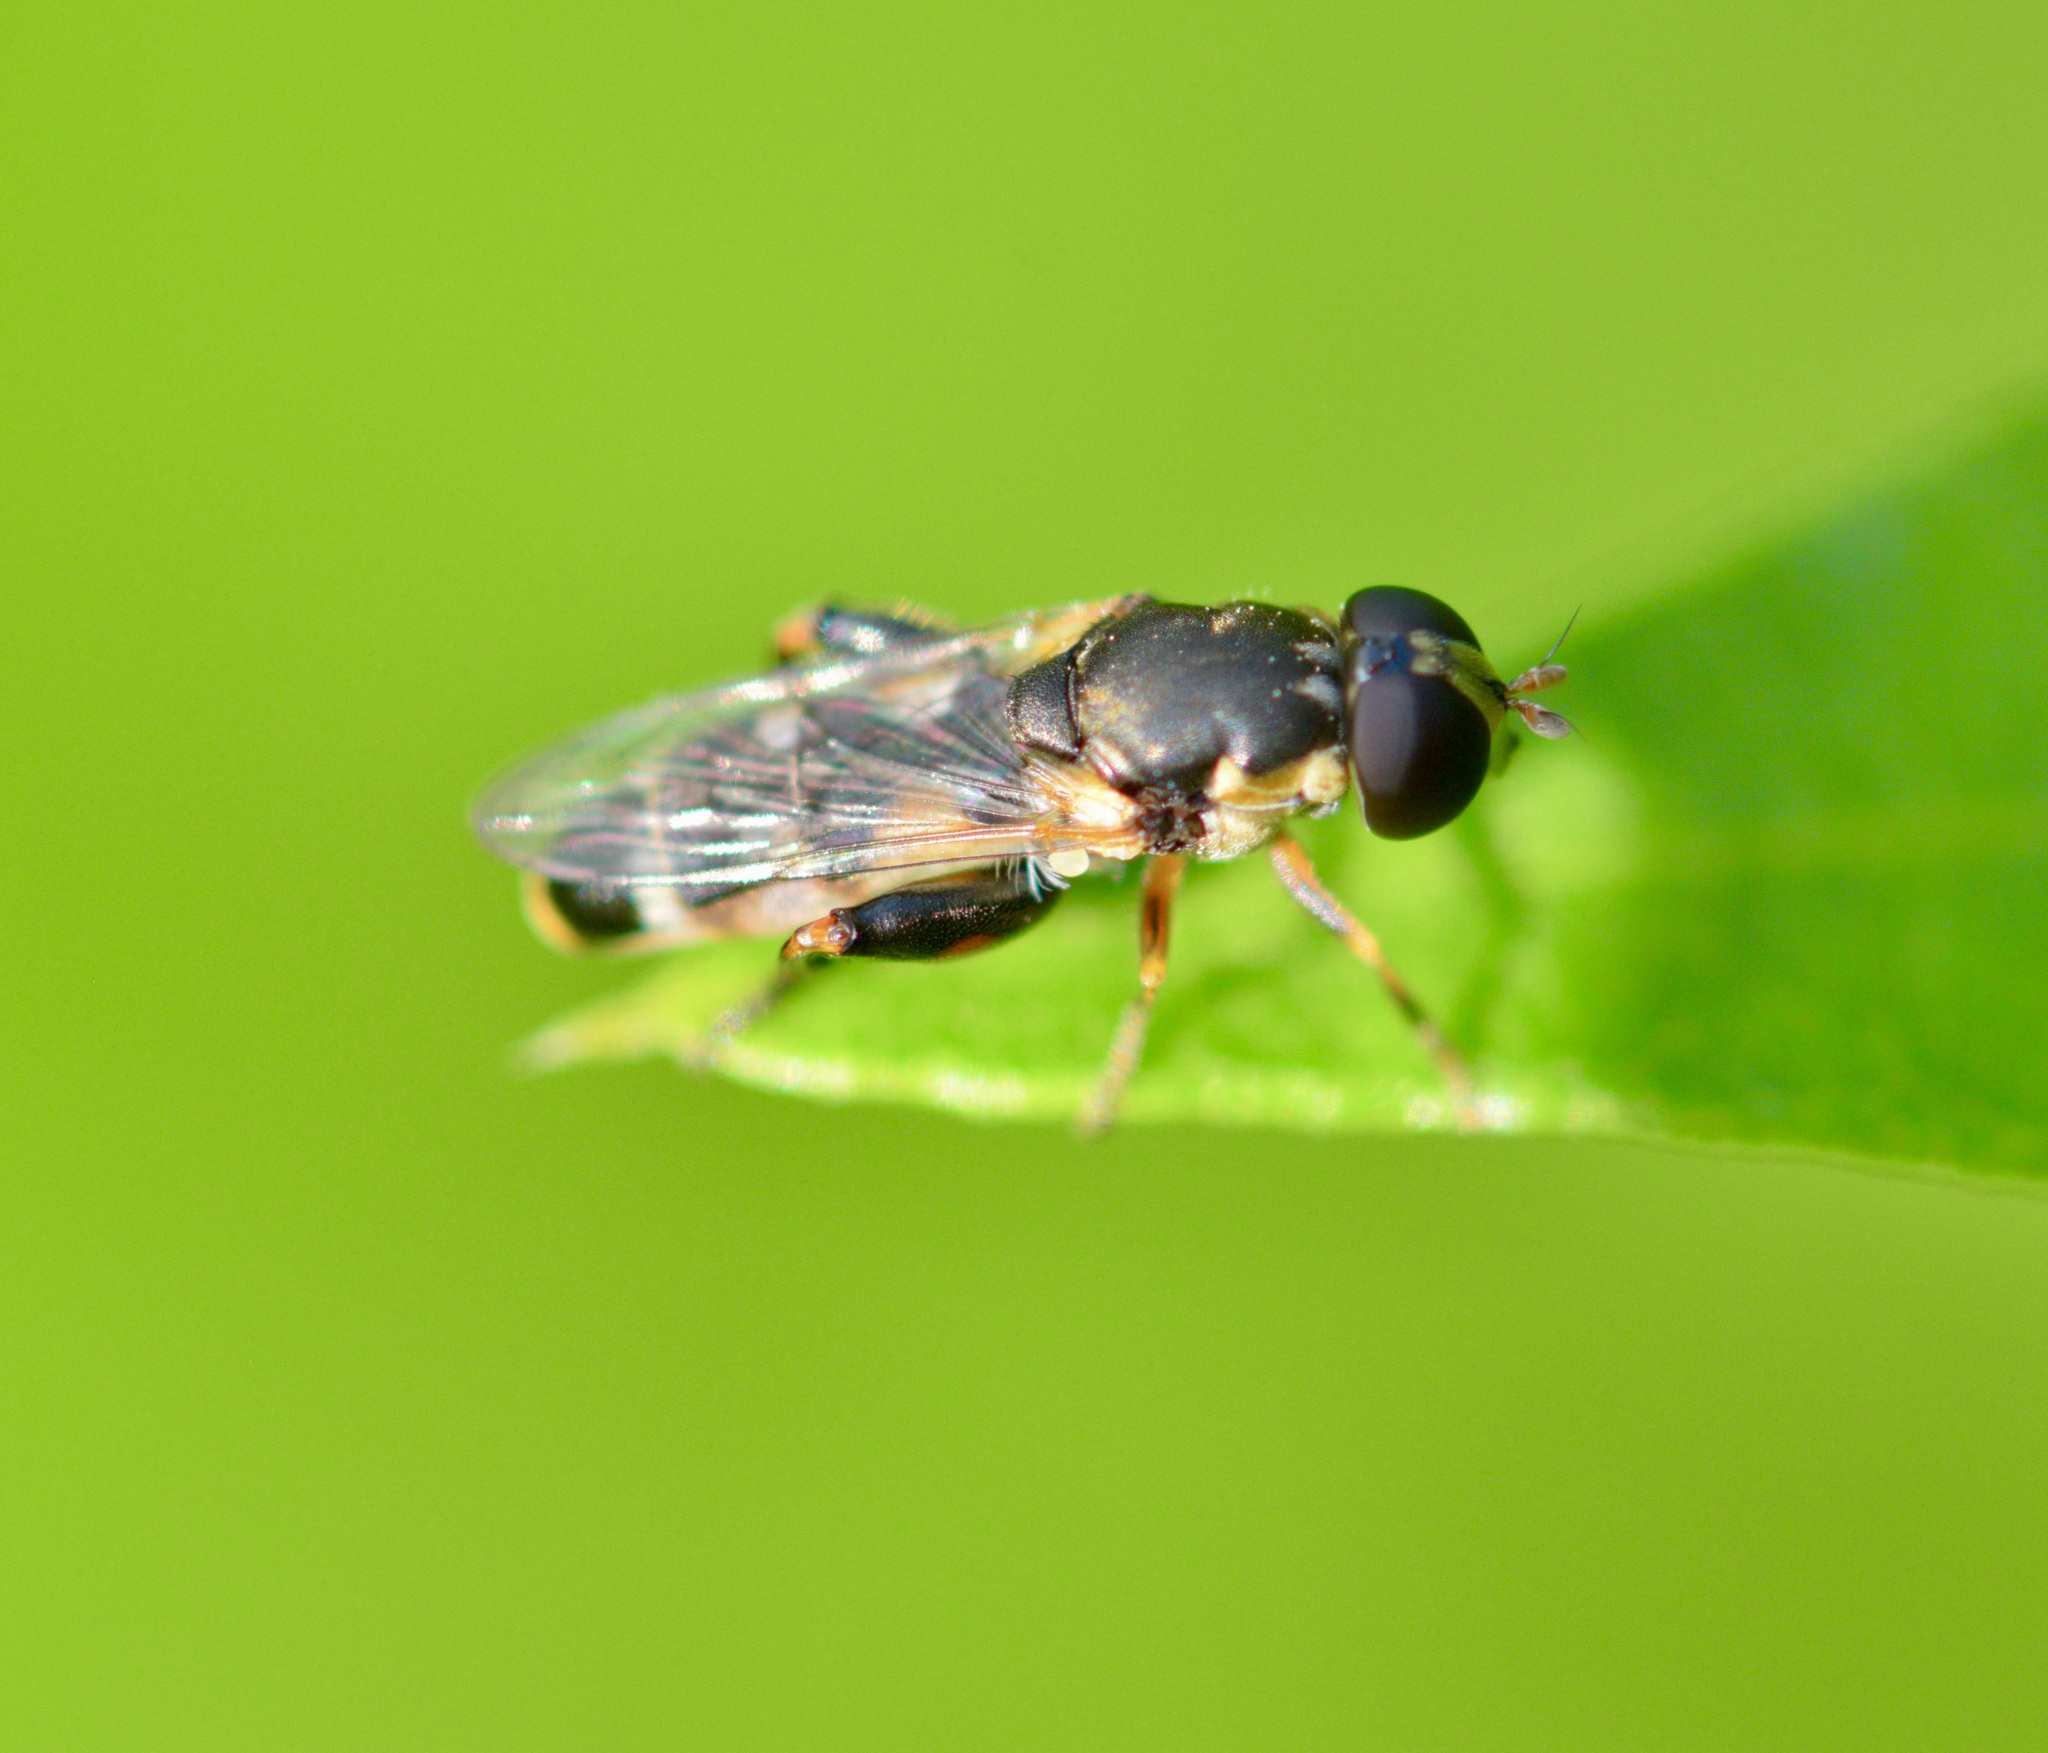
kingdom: Animalia
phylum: Arthropoda
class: Insecta
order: Diptera
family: Syrphidae
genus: Syritta
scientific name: Syritta pipiens
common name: Hover fly
